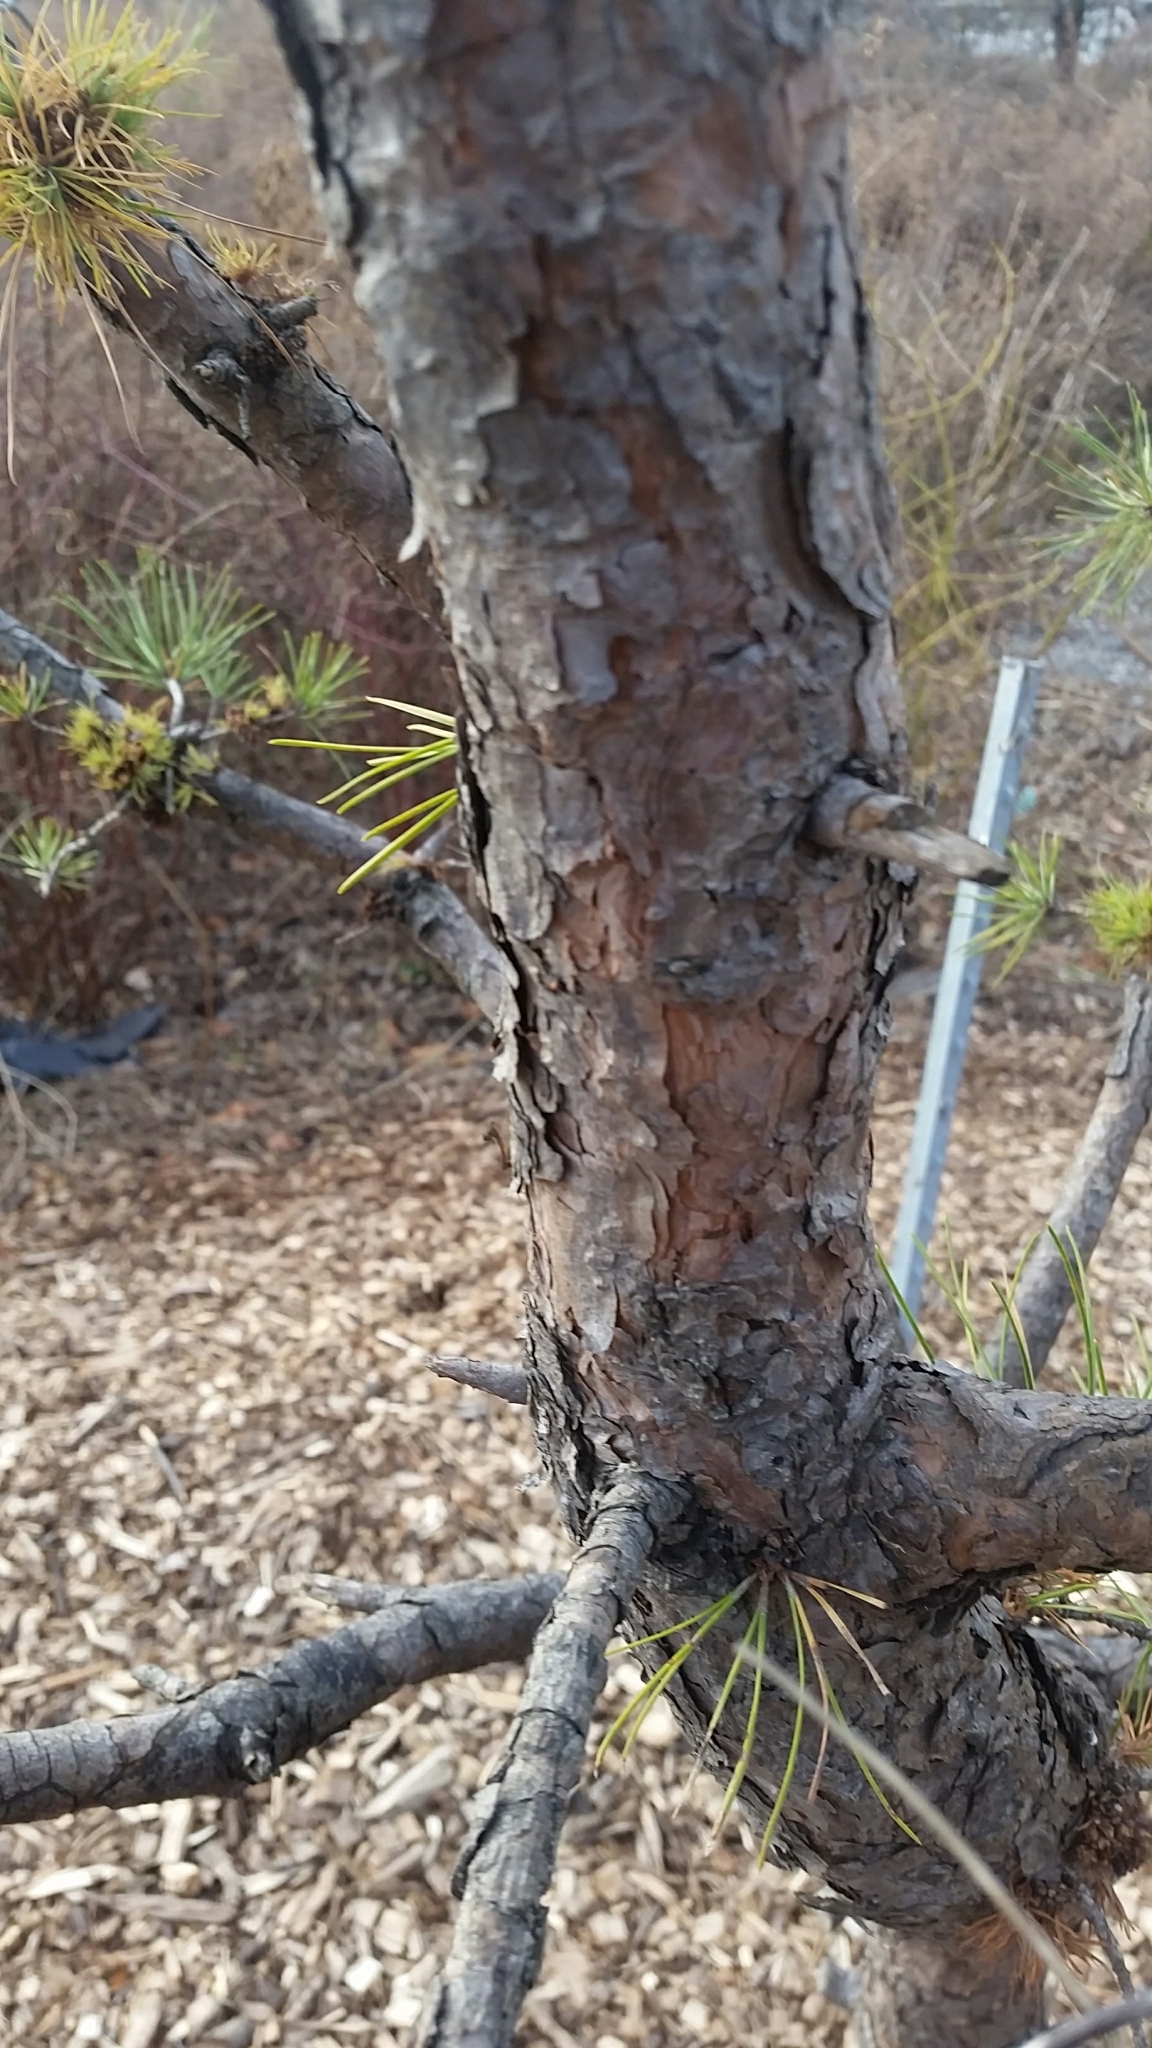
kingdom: Plantae
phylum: Tracheophyta
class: Pinopsida
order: Pinales
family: Pinaceae
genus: Pinus
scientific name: Pinus rigida
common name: Pitch pine
